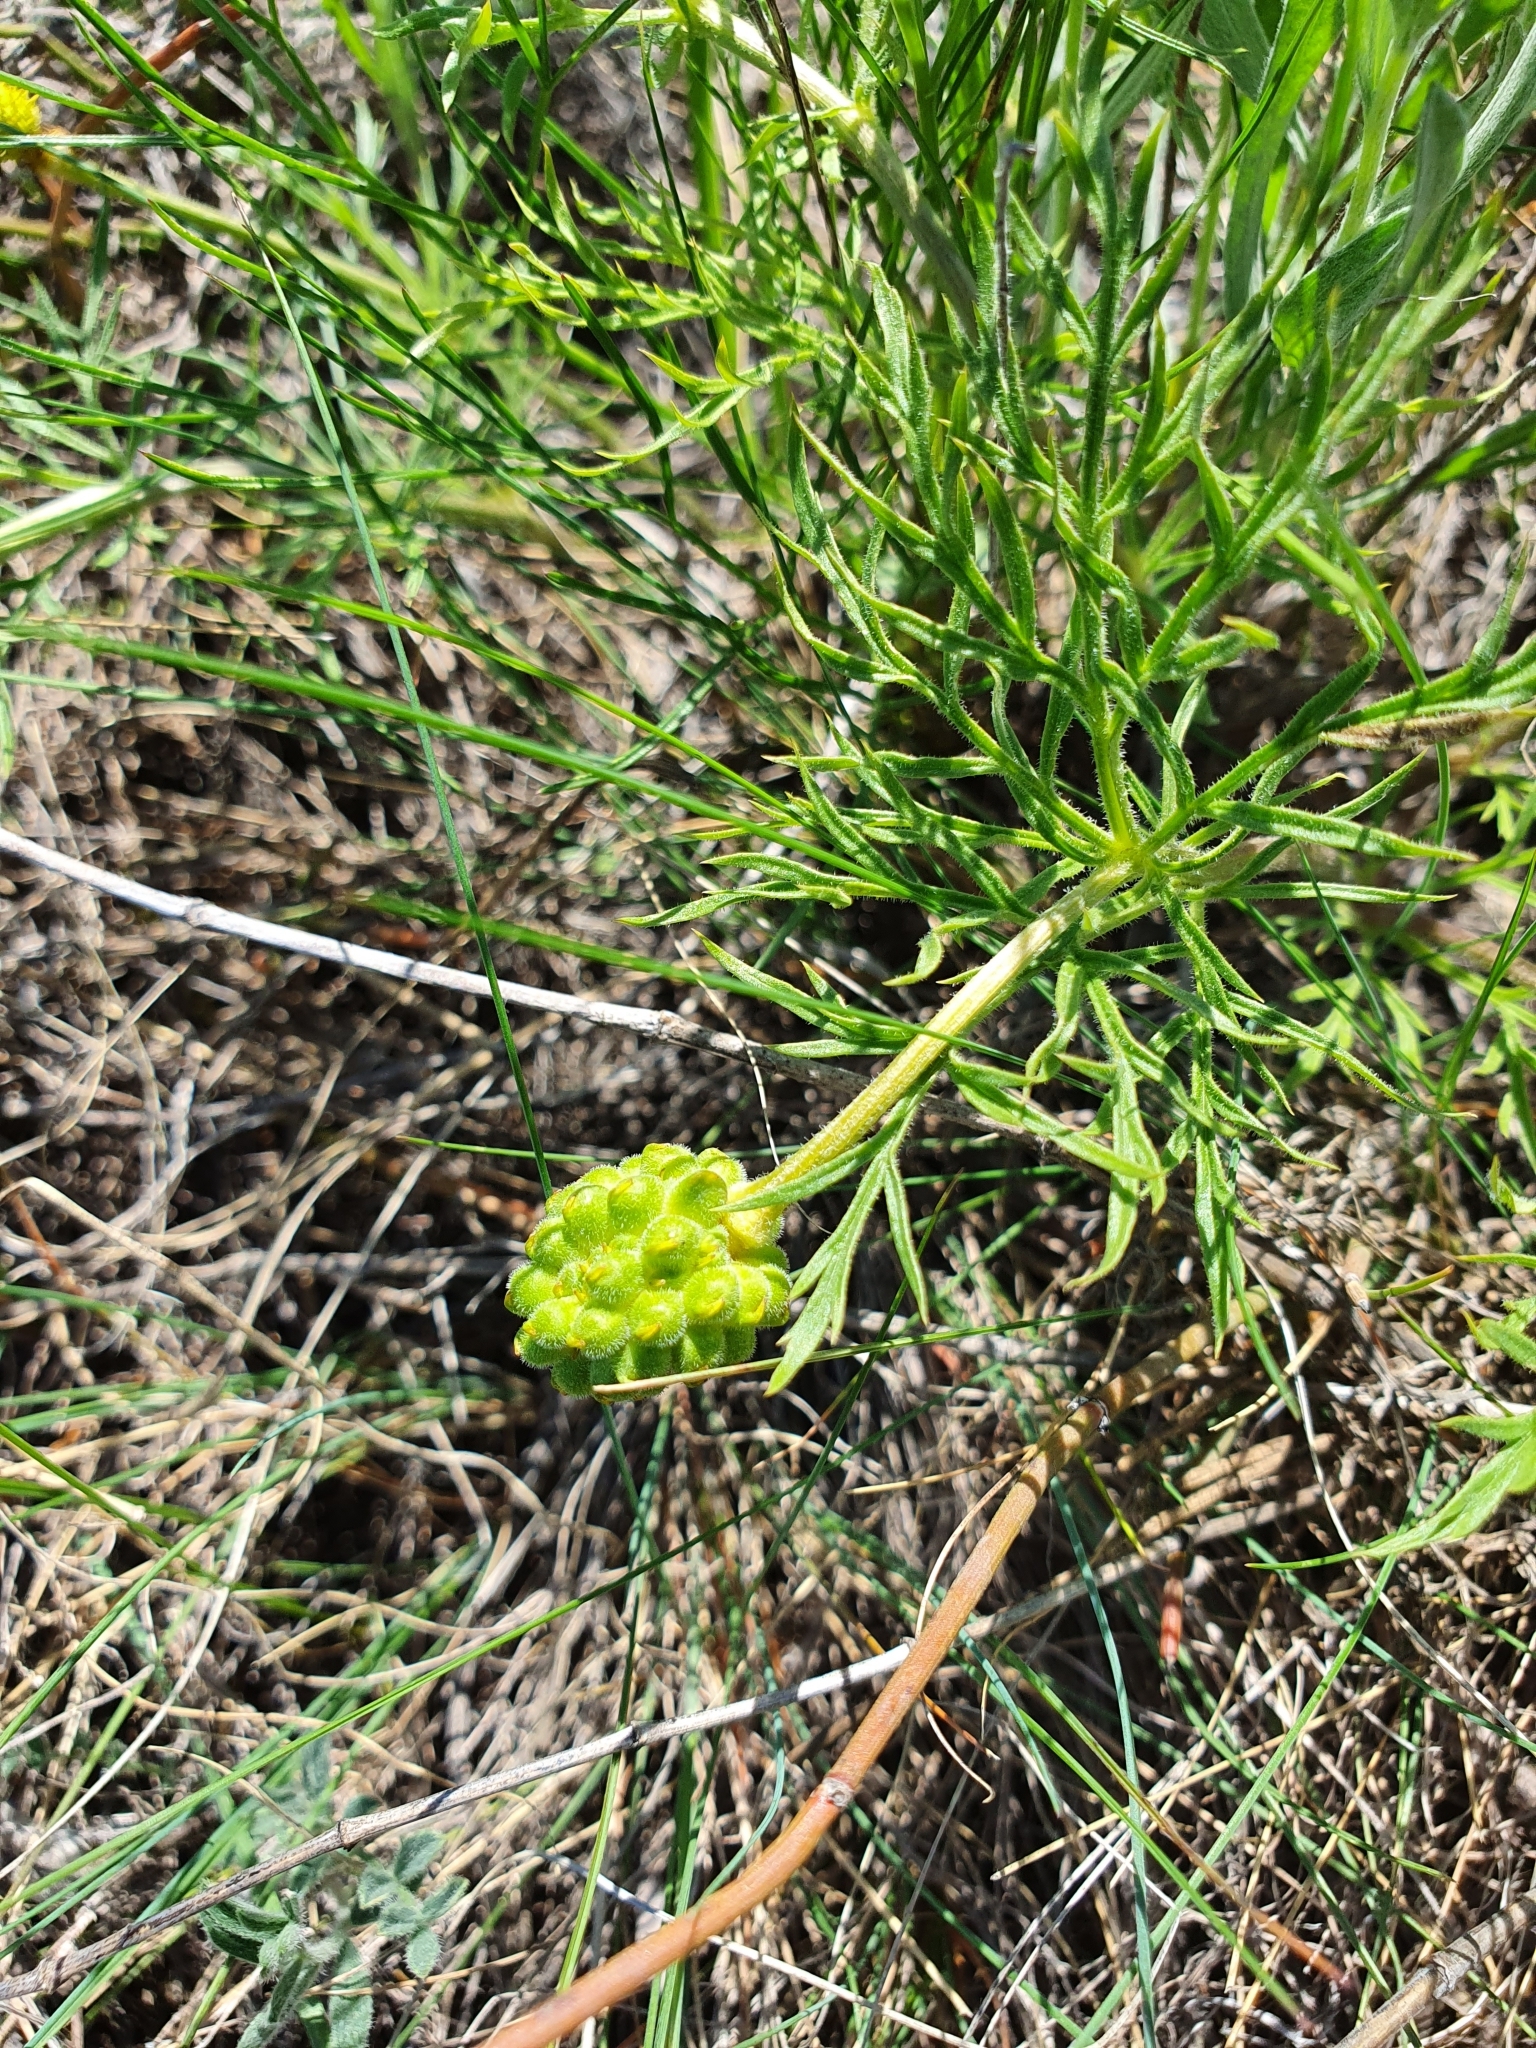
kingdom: Plantae
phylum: Tracheophyta
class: Magnoliopsida
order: Ranunculales
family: Ranunculaceae
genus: Adonis
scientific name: Adonis volgensis
